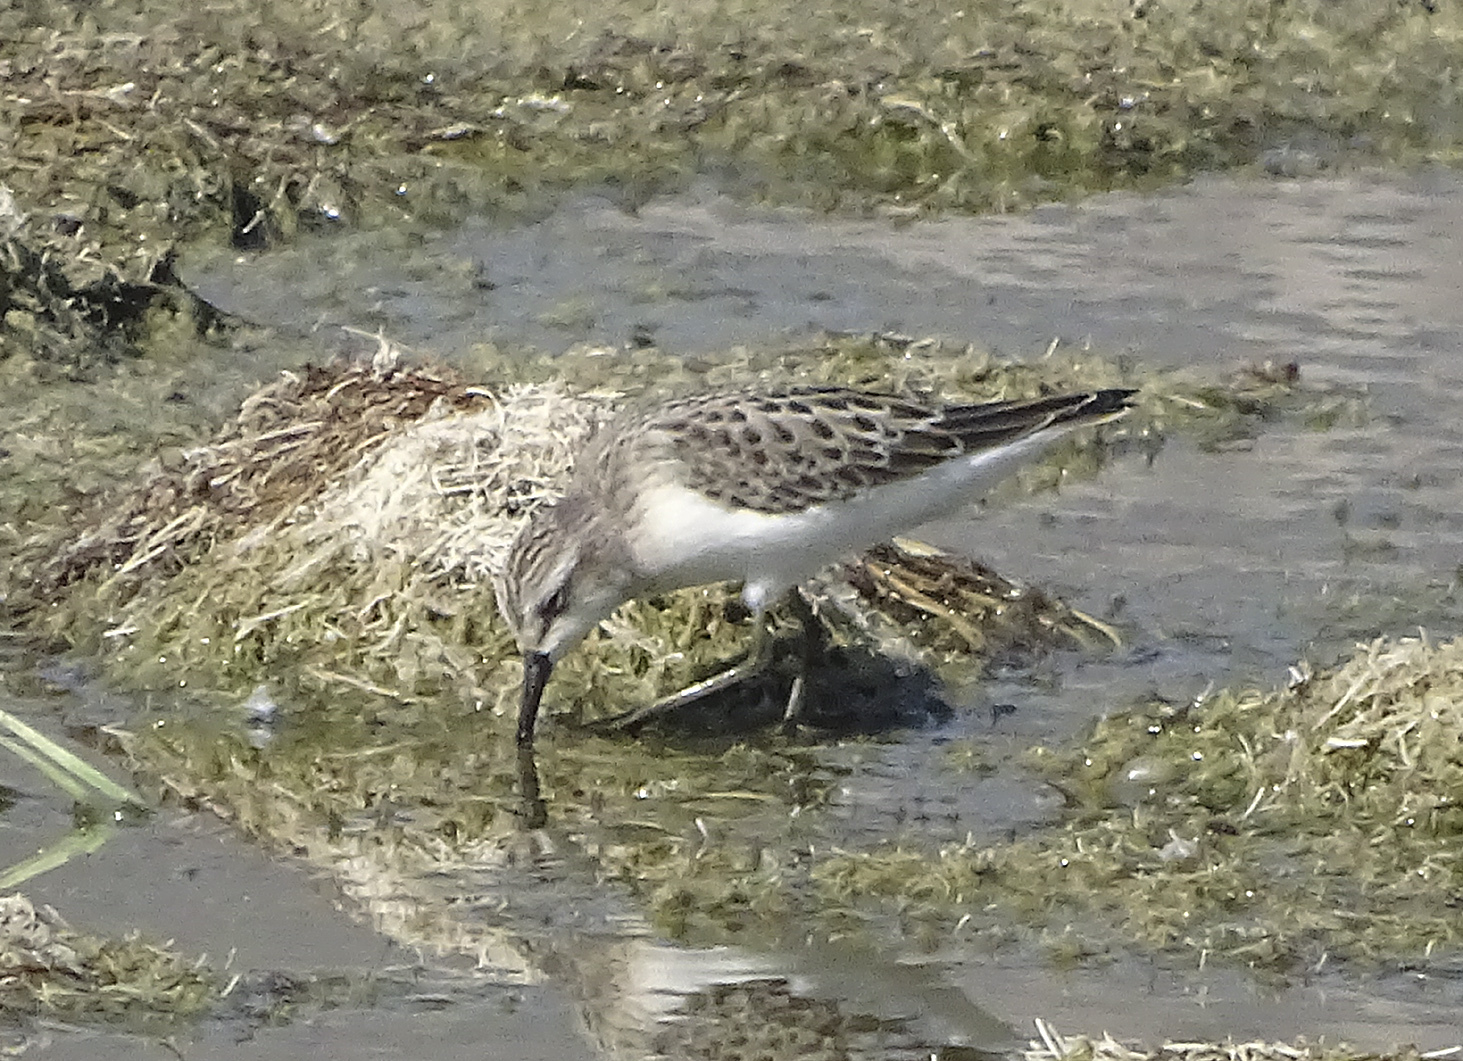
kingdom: Animalia
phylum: Chordata
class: Aves
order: Charadriiformes
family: Scolopacidae
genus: Calidris
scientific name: Calidris pusilla
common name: Semipalmated sandpiper
